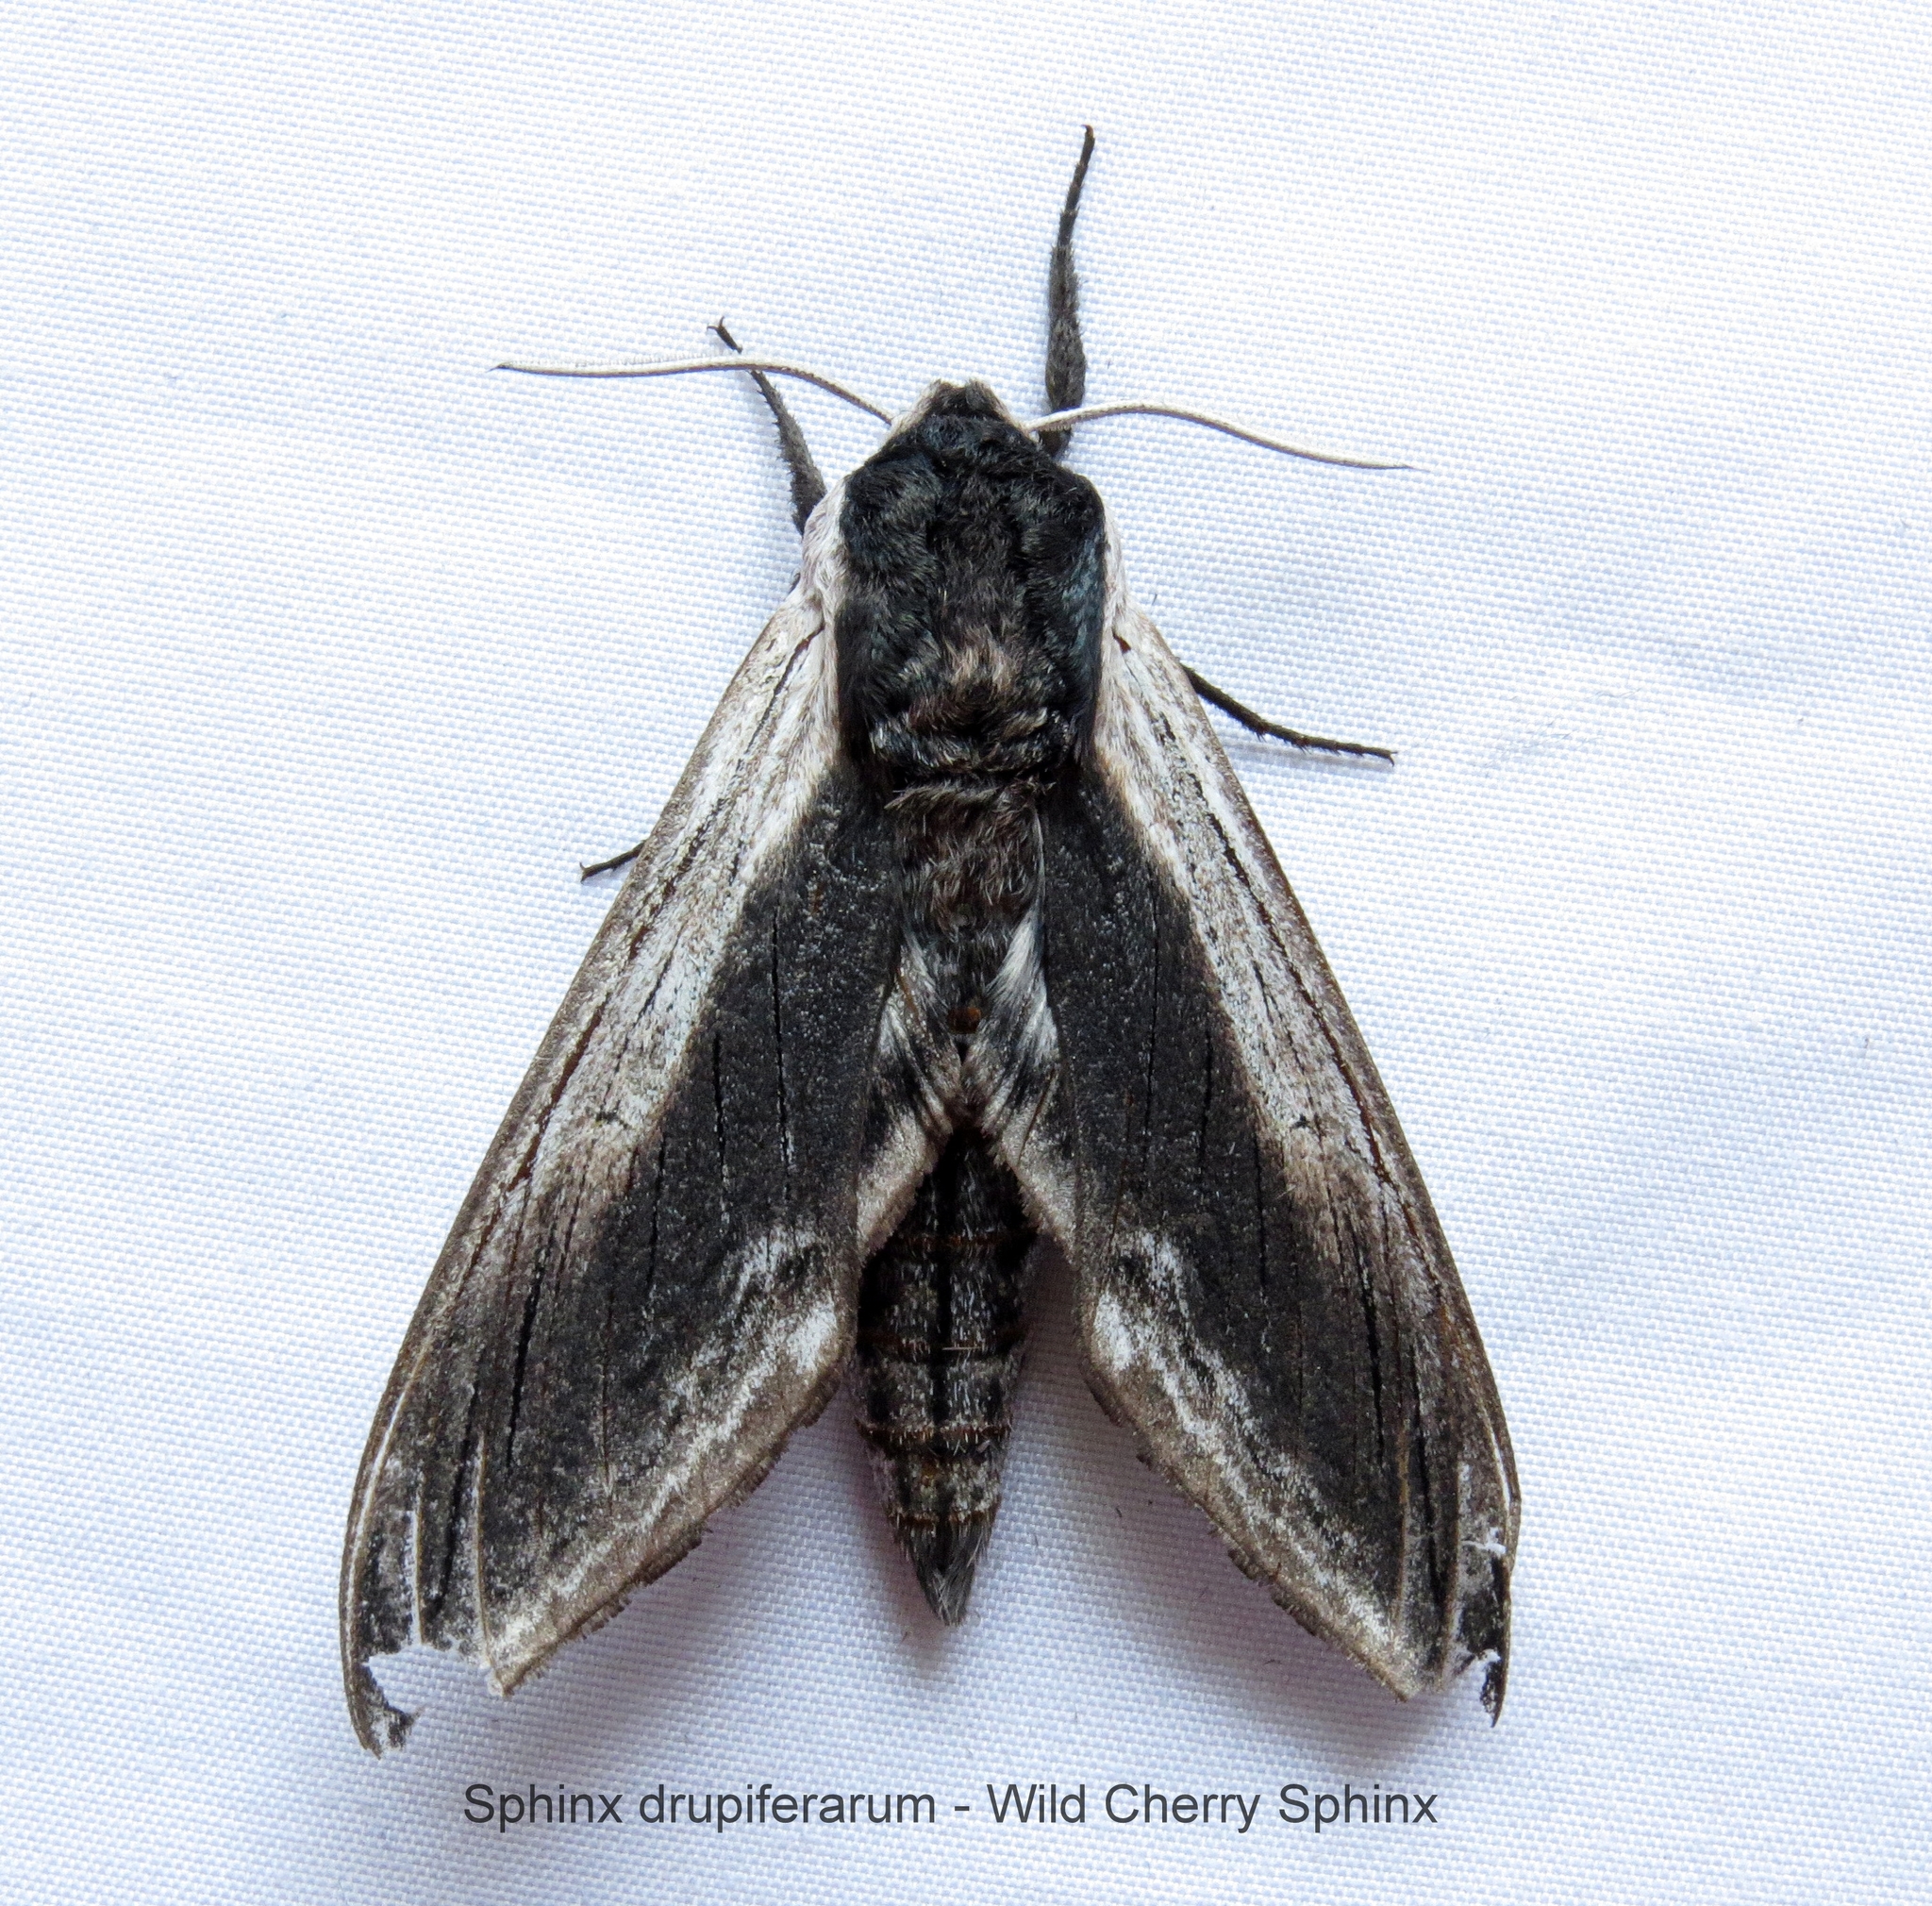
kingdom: Animalia
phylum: Arthropoda
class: Insecta
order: Lepidoptera
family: Sphingidae
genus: Sphinx
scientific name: Sphinx drupiferarum
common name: Wild cherry sphinx
